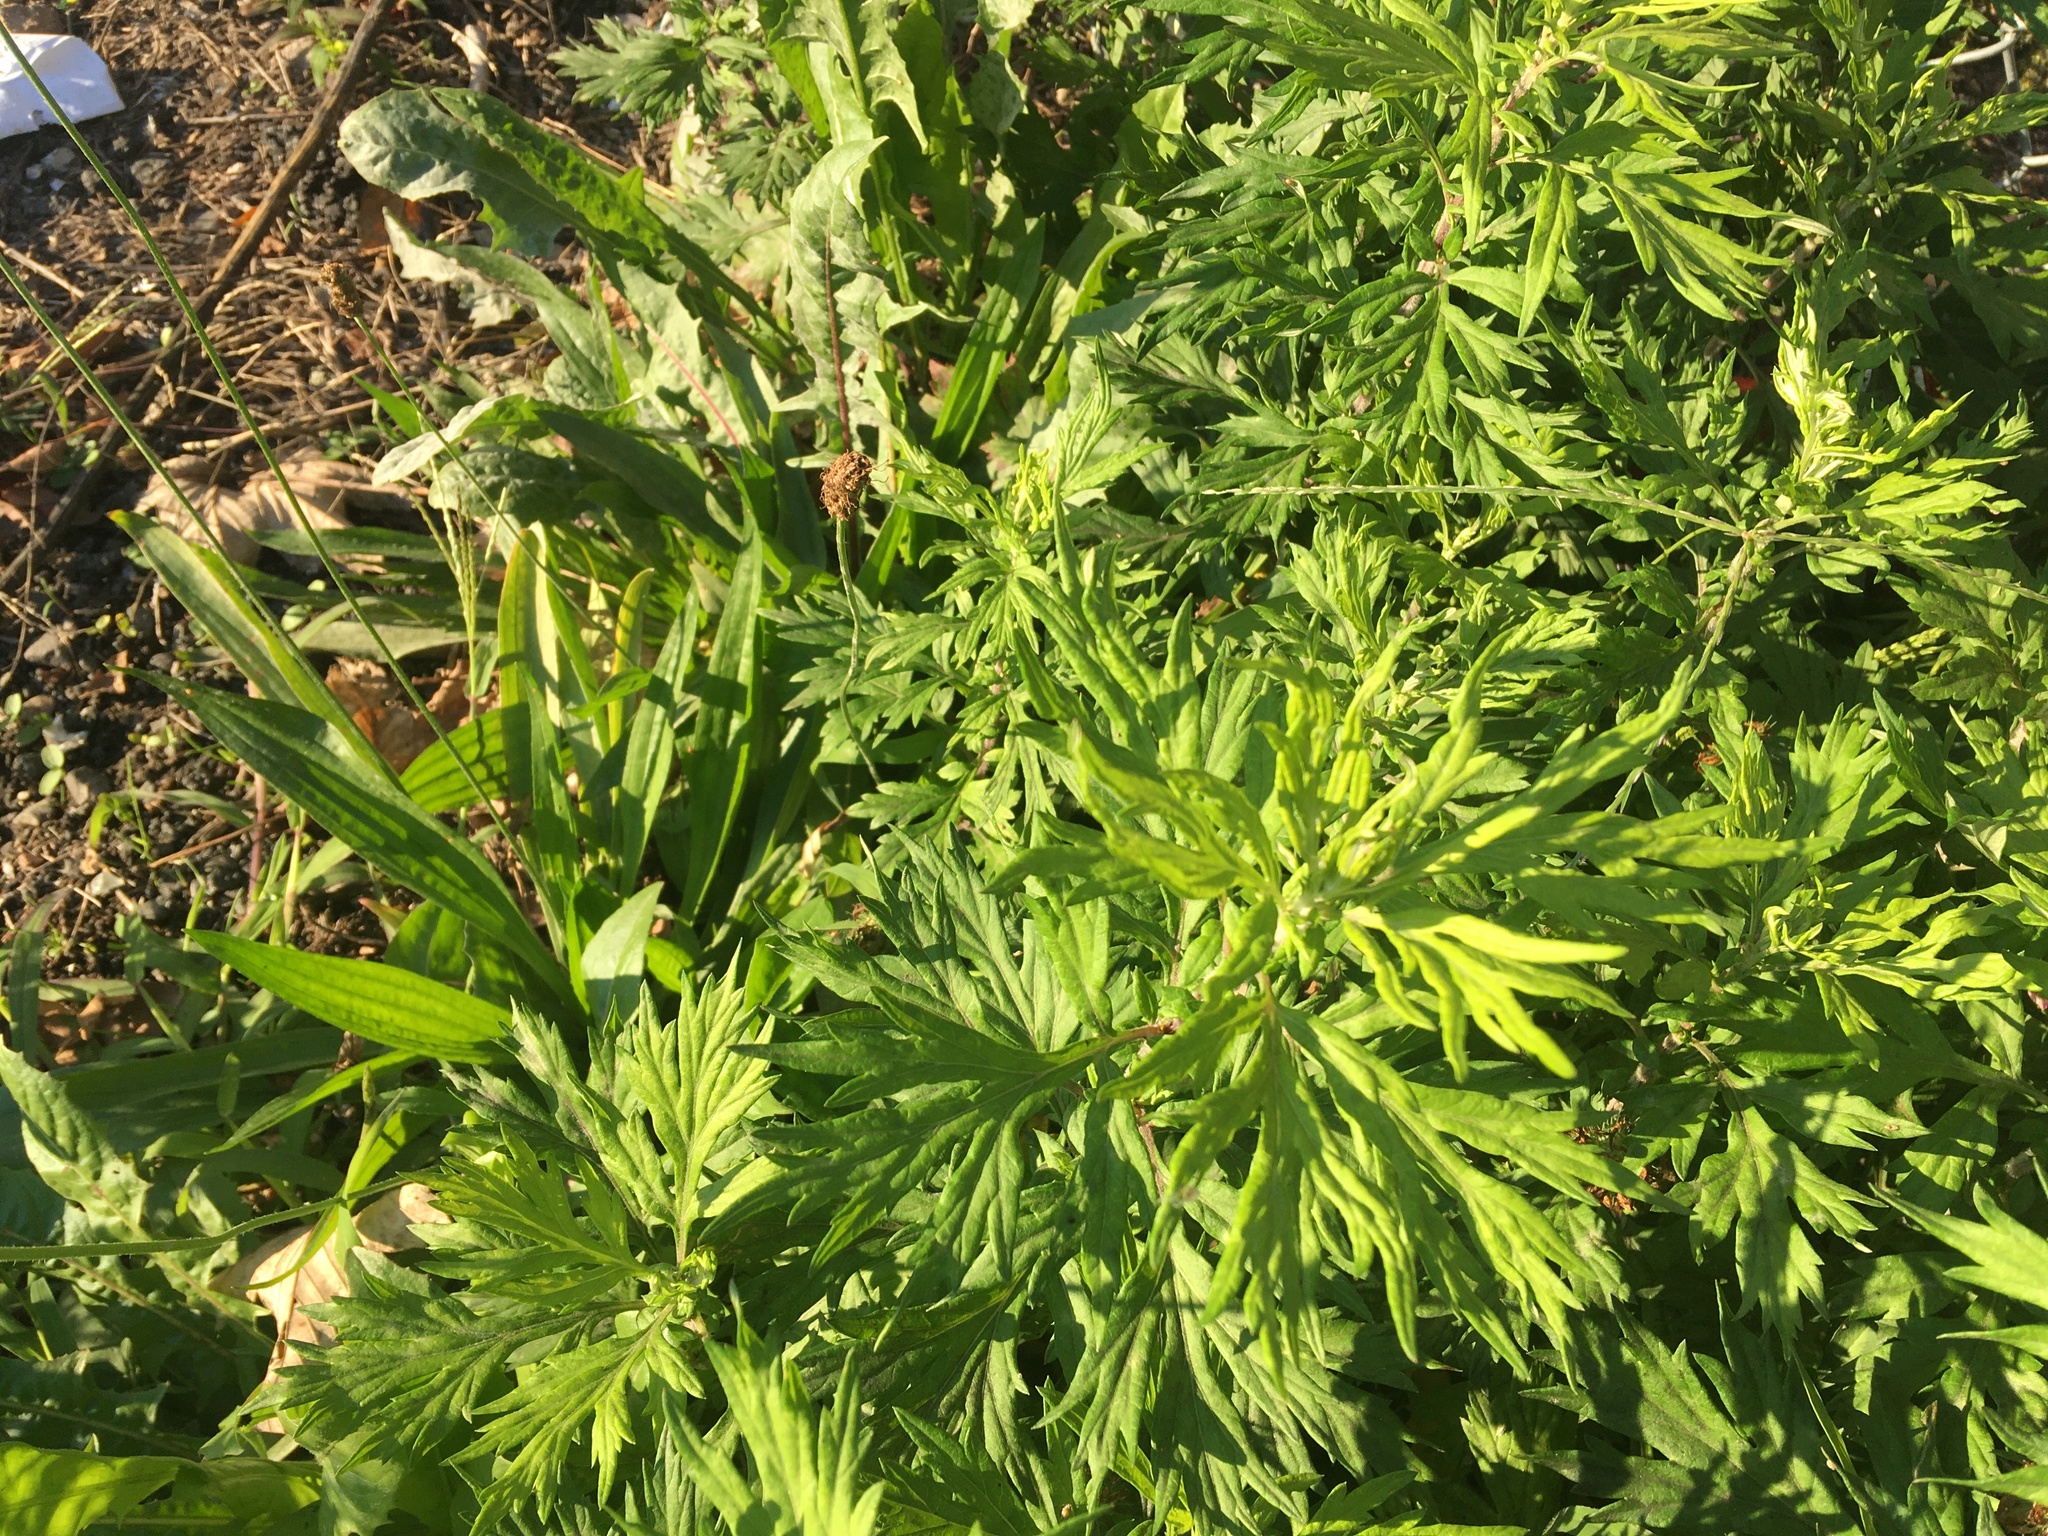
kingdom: Plantae
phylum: Tracheophyta
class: Magnoliopsida
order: Asterales
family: Asteraceae
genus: Artemisia
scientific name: Artemisia vulgaris
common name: Mugwort
